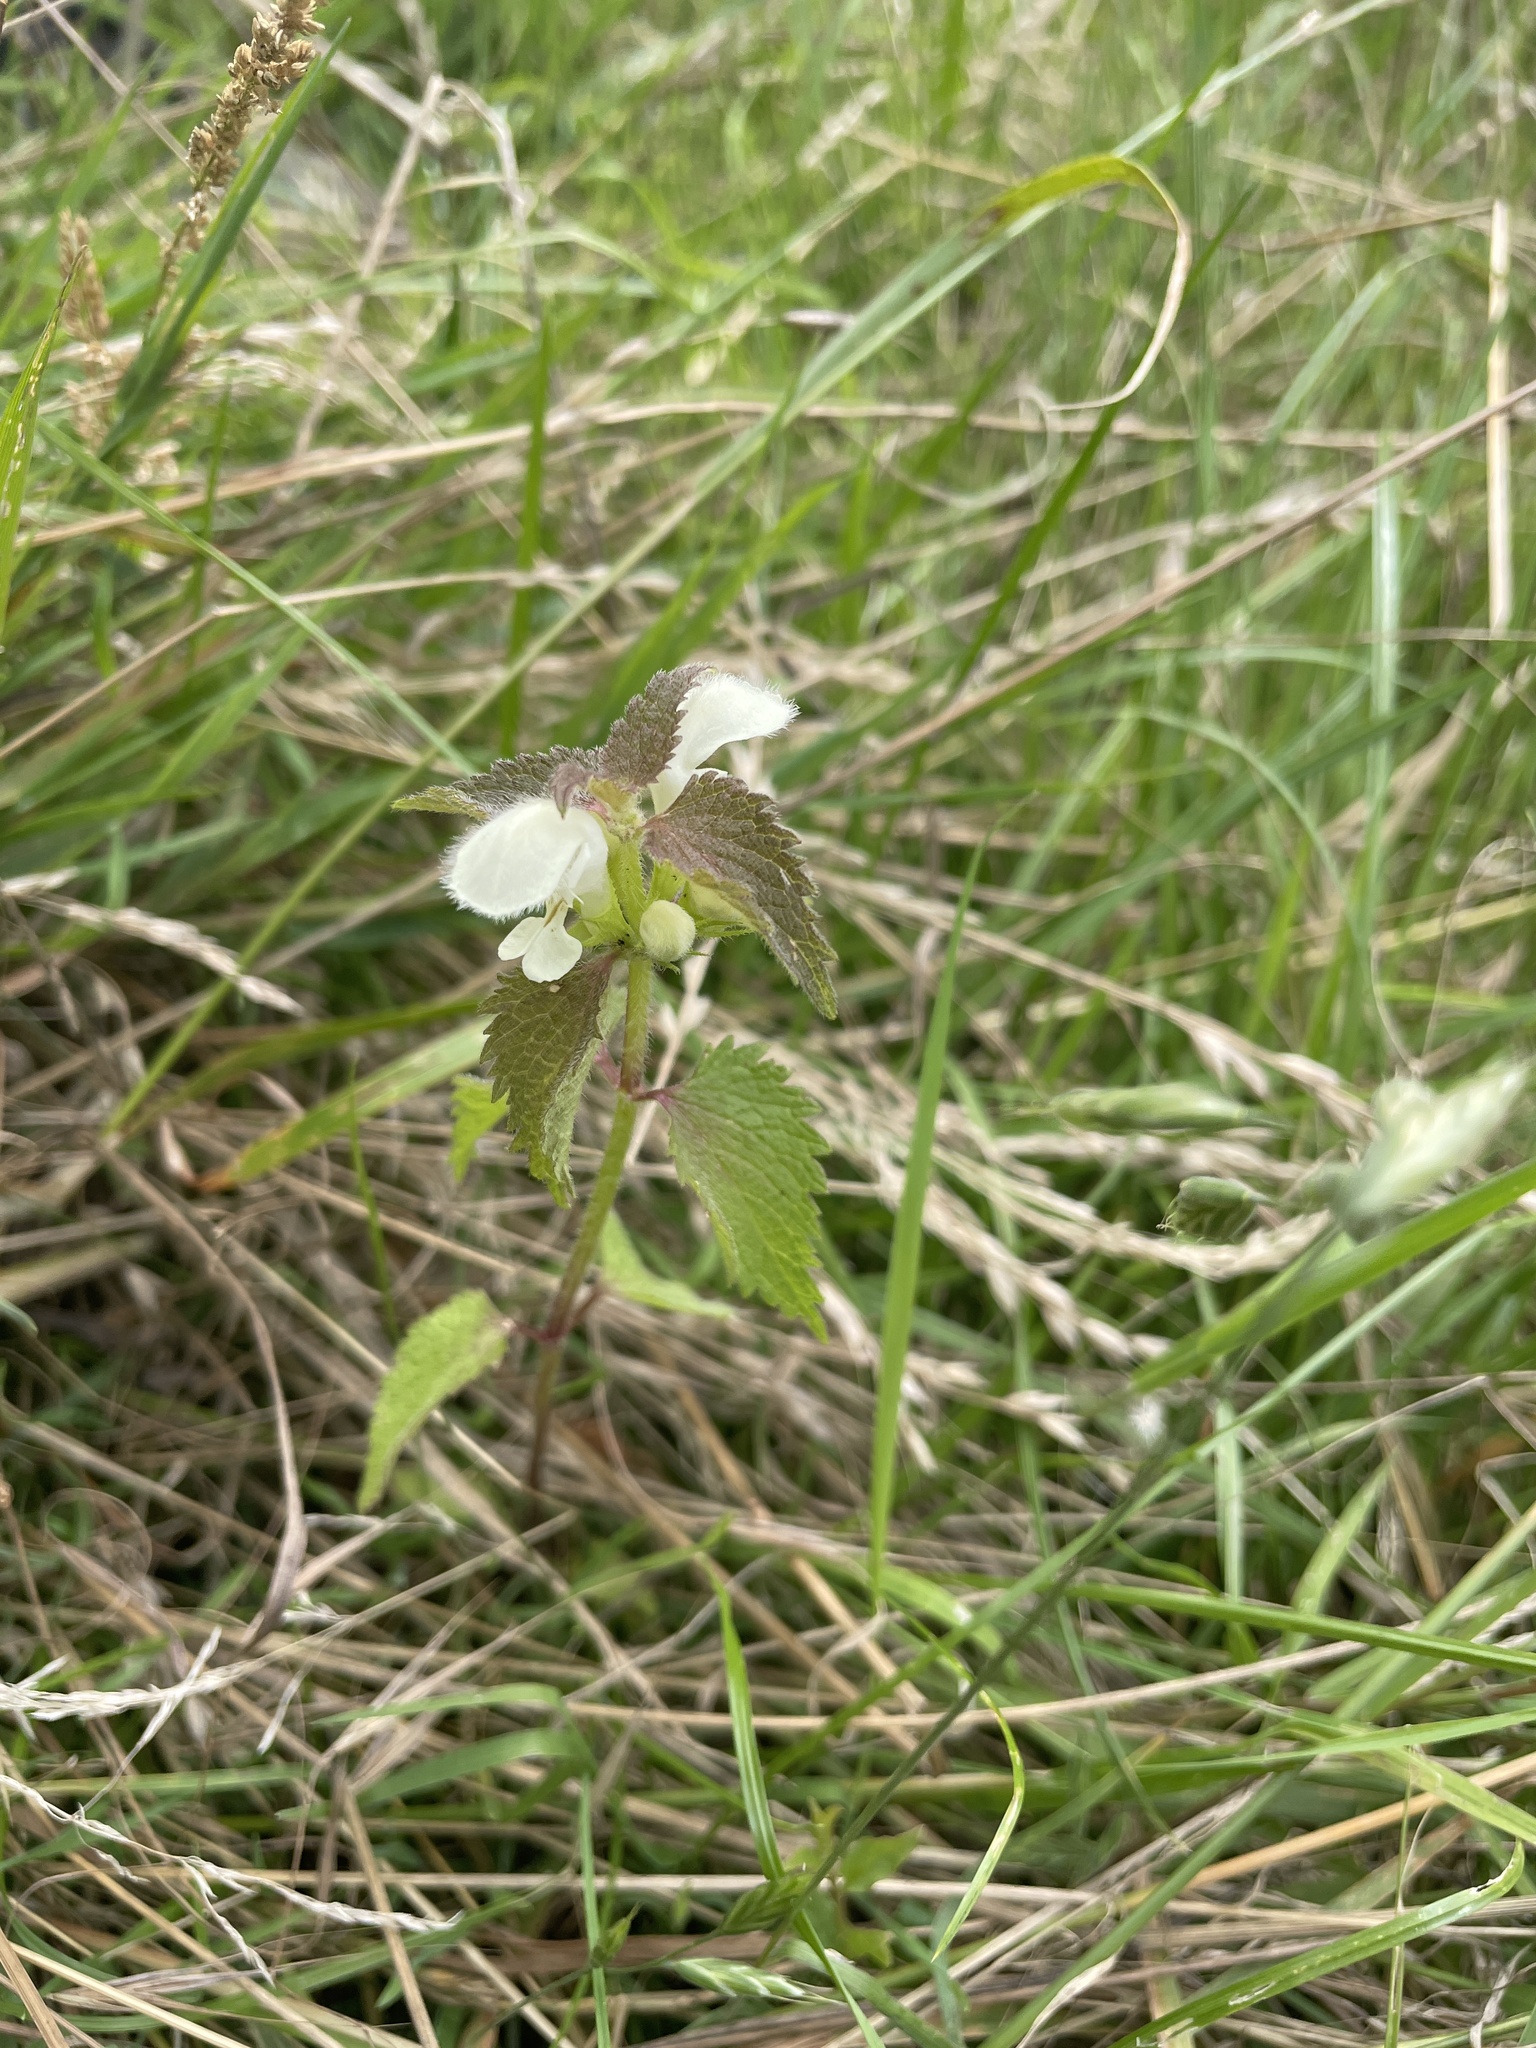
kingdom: Plantae
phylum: Tracheophyta
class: Magnoliopsida
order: Lamiales
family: Lamiaceae
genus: Lamium
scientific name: Lamium album
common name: White dead-nettle
